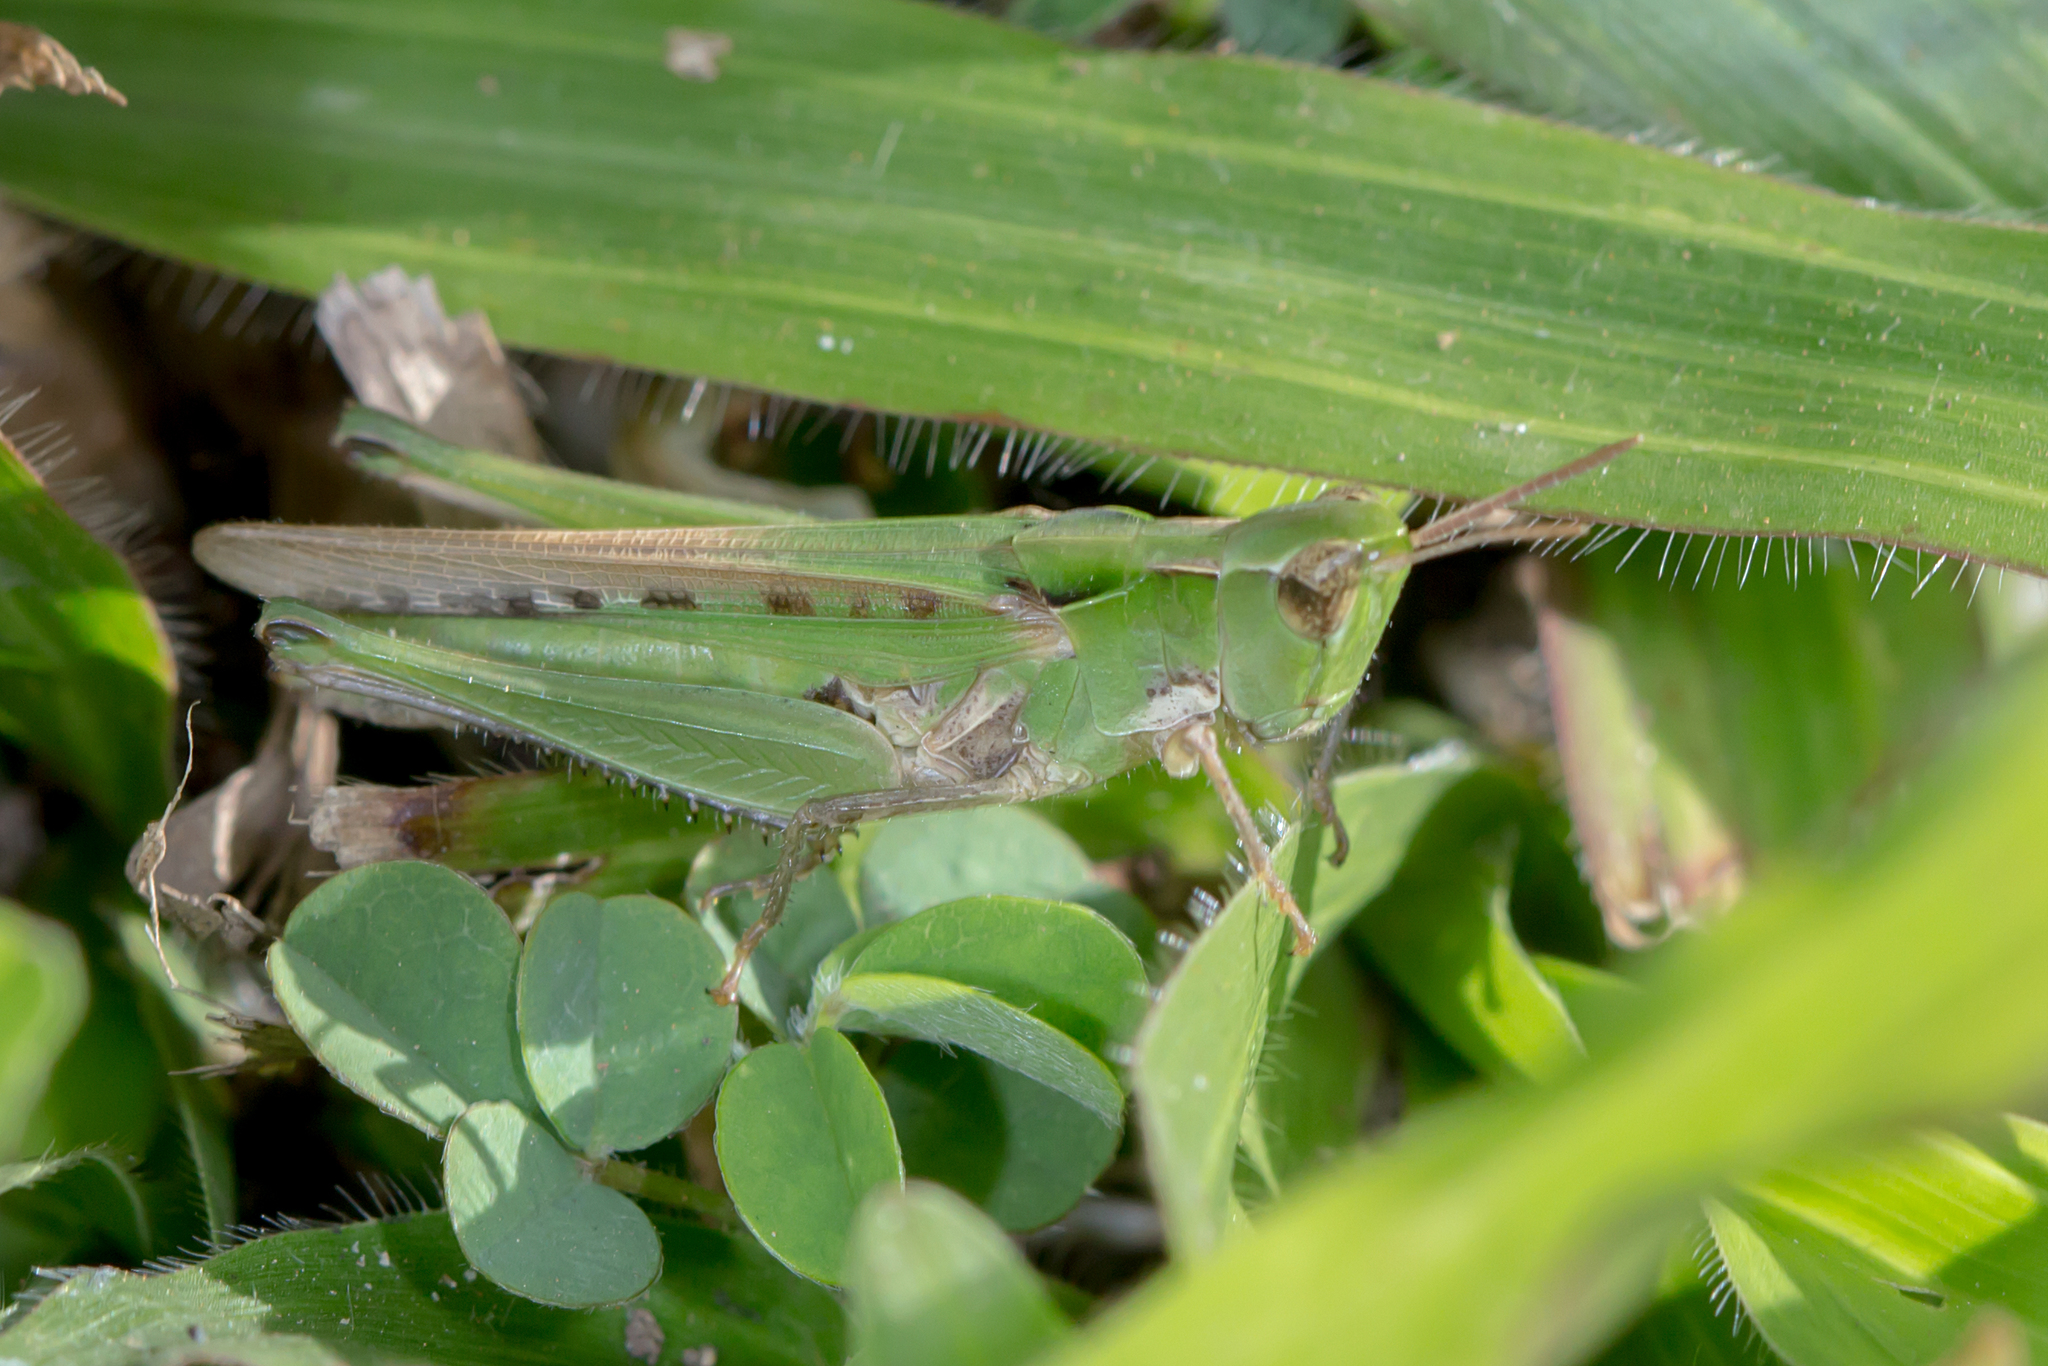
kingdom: Animalia
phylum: Arthropoda
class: Insecta
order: Orthoptera
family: Acrididae
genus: Calephorops
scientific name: Calephorops viridis
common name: Calephorops
